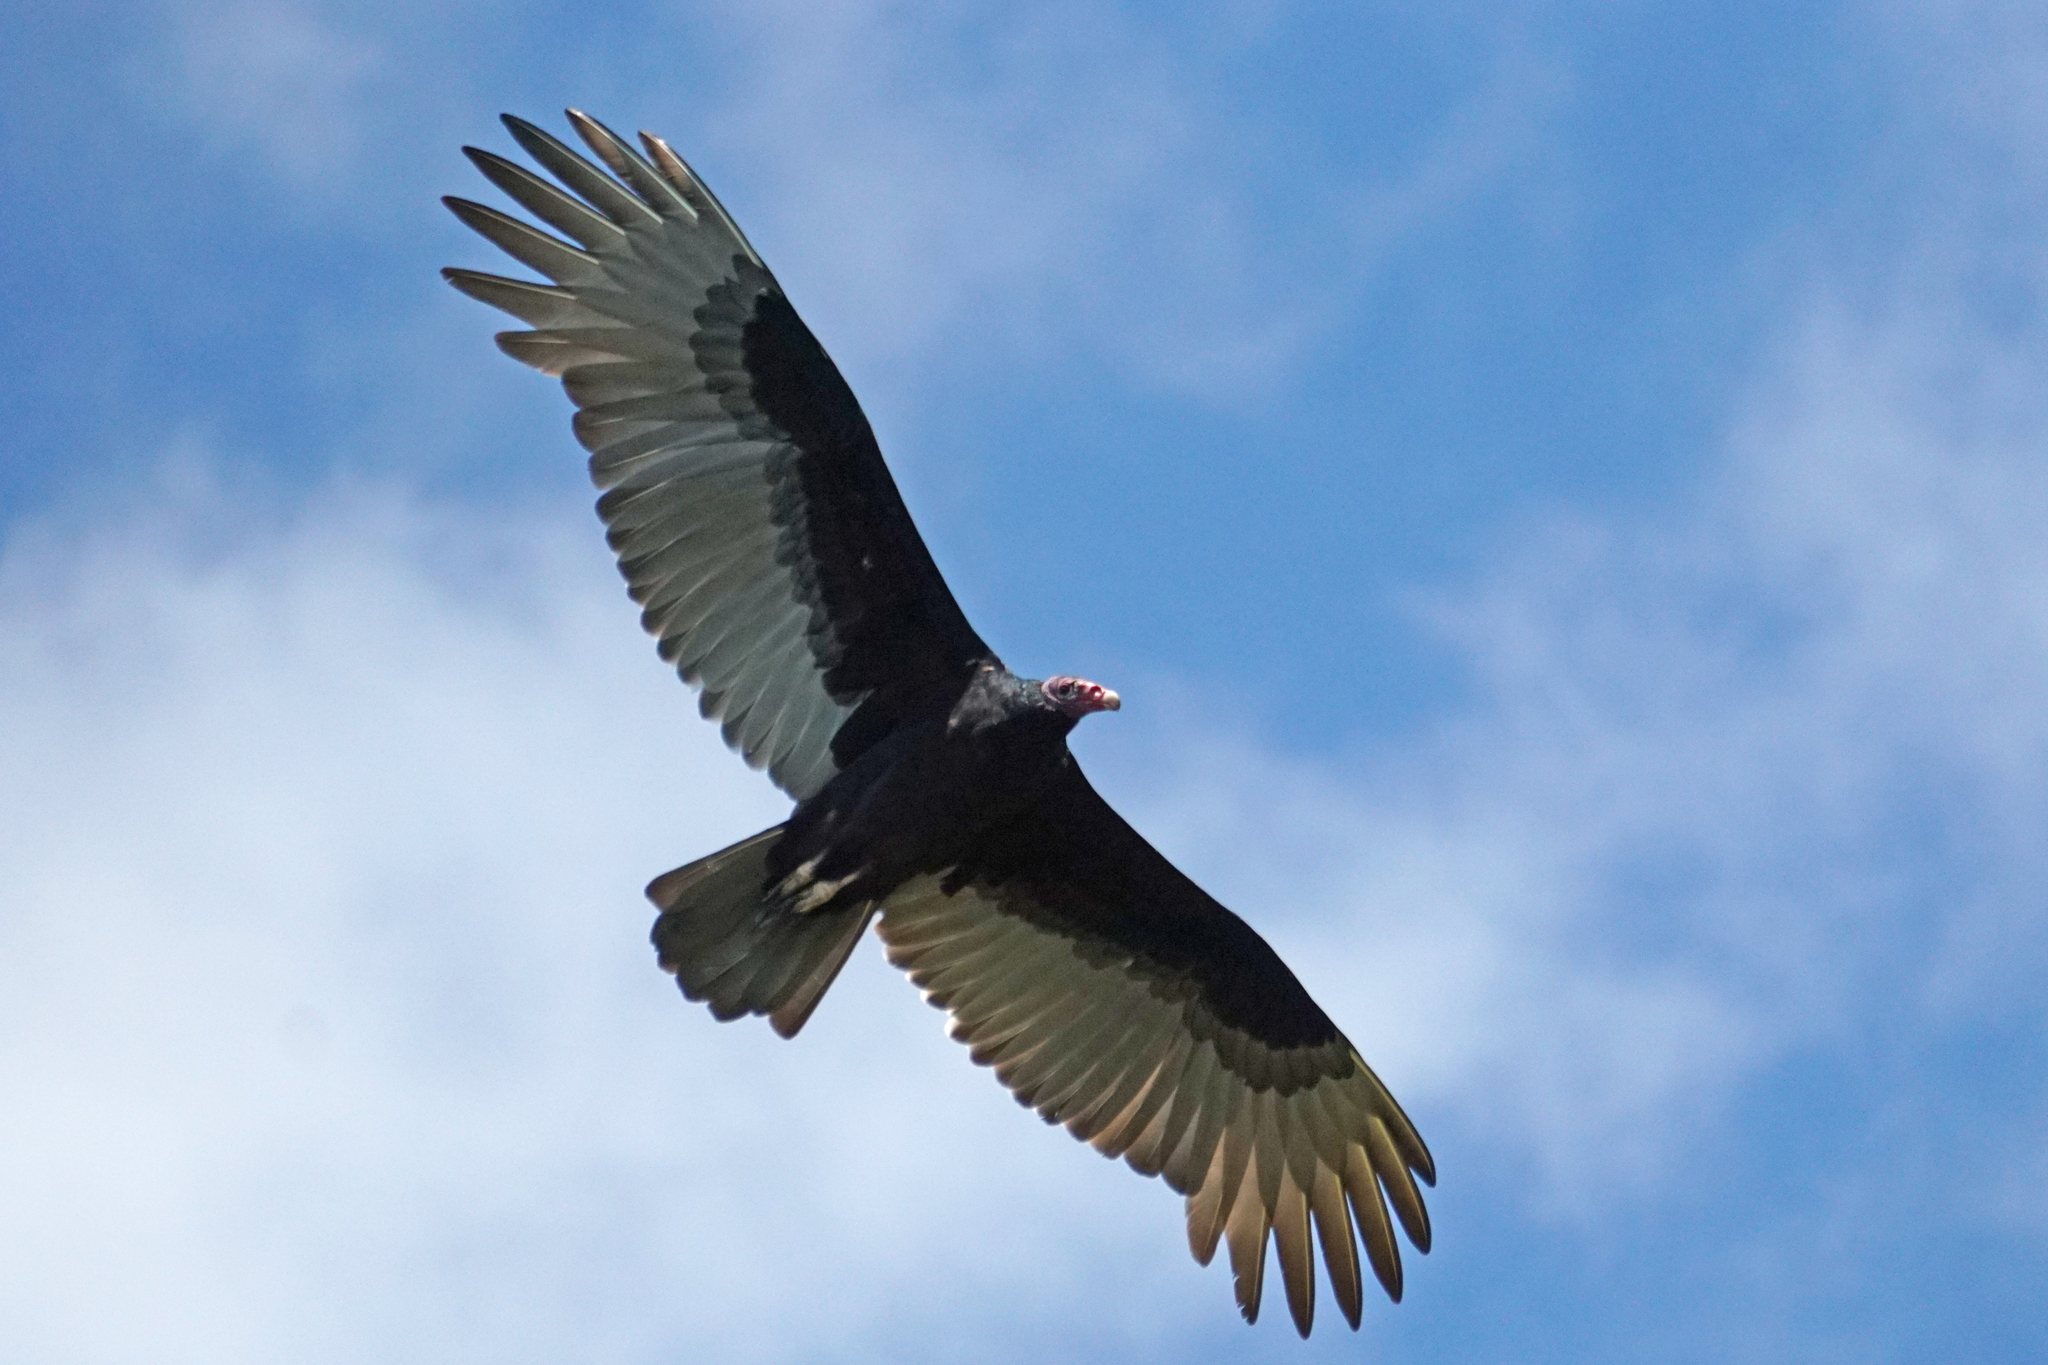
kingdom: Animalia
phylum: Chordata
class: Aves
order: Accipitriformes
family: Cathartidae
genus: Cathartes
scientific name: Cathartes aura
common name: Turkey vulture
